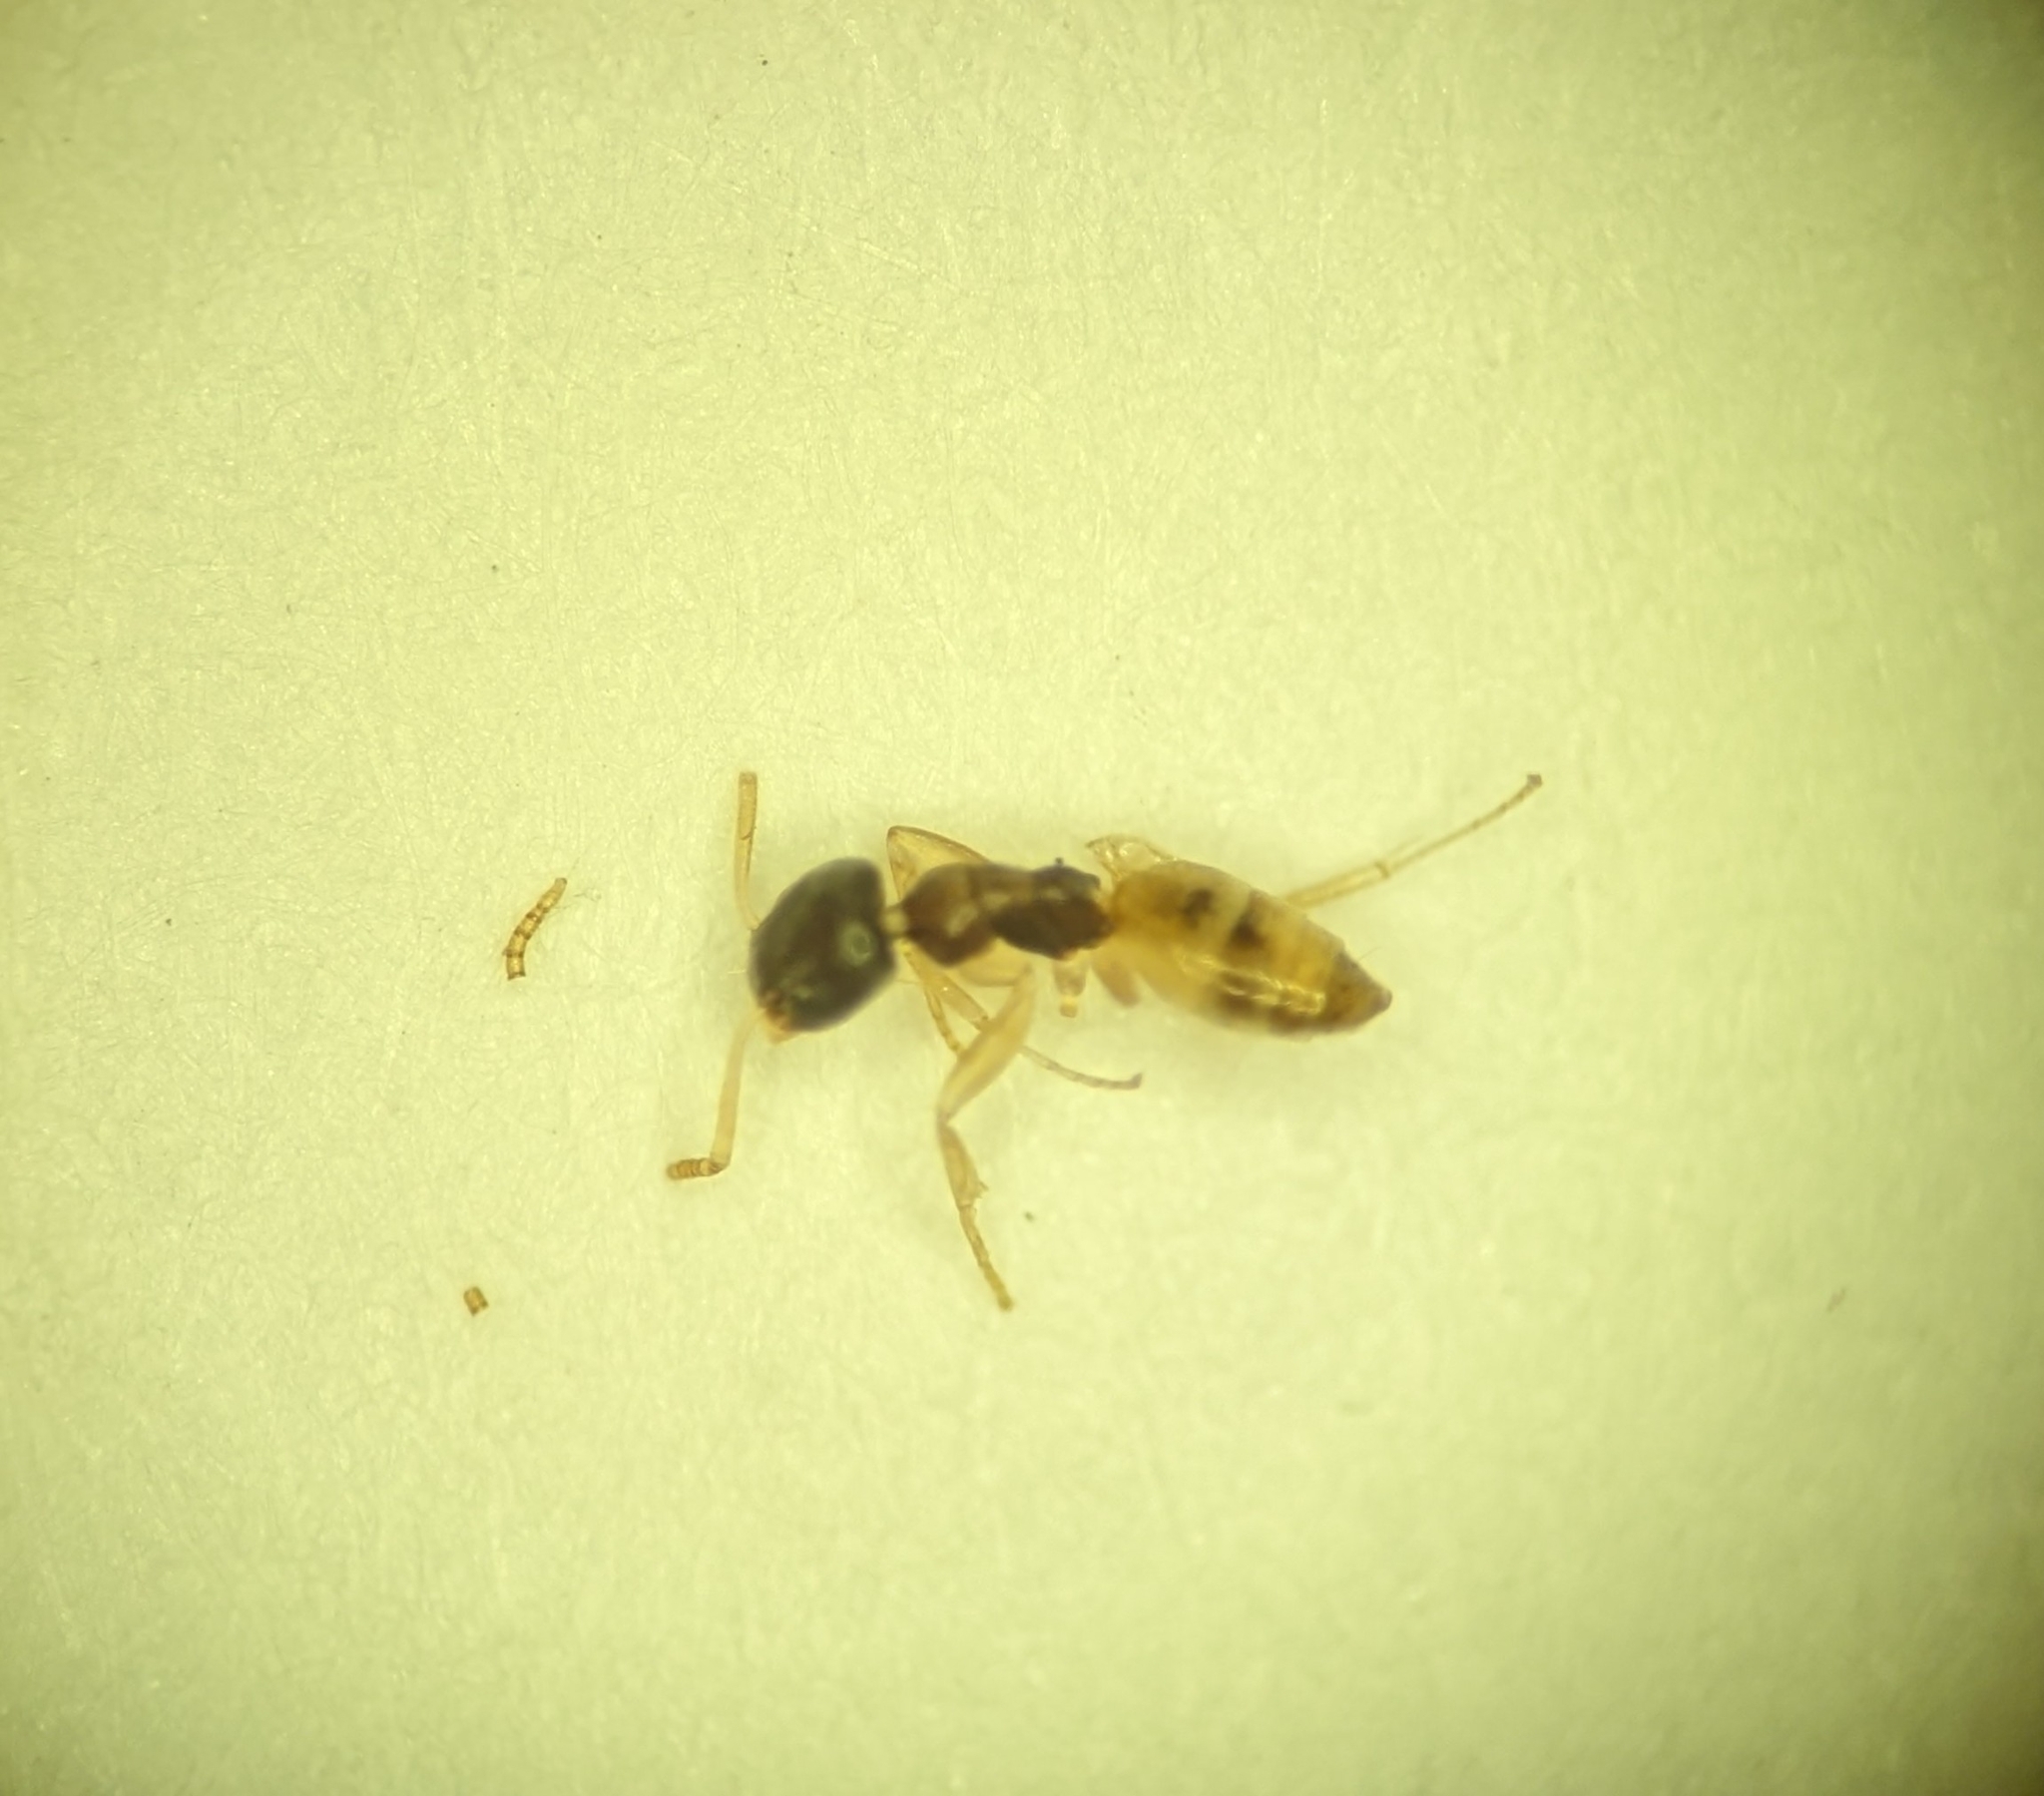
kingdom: Animalia
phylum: Arthropoda
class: Insecta
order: Hymenoptera
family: Formicidae
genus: Tapinoma
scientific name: Tapinoma melanocephalum
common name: Ghost ant
